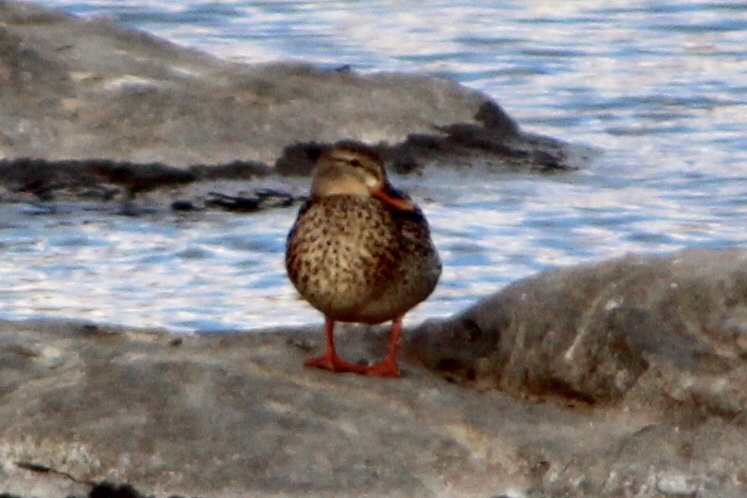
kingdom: Animalia
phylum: Chordata
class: Aves
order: Anseriformes
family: Anatidae
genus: Anas
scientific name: Anas platyrhynchos
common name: Mallard
